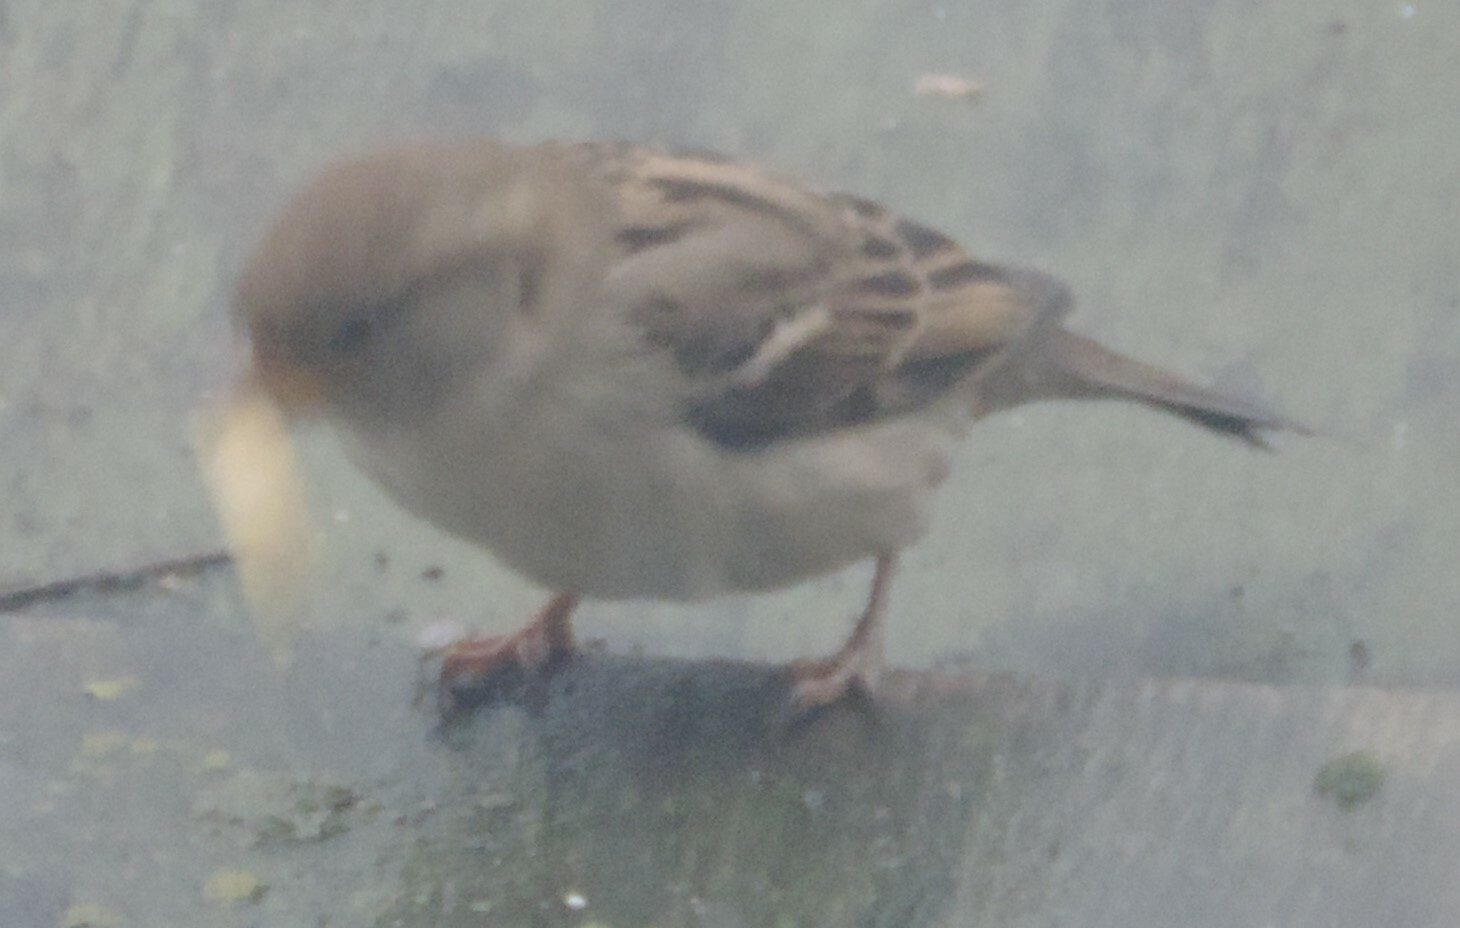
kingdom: Animalia
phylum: Chordata
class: Aves
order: Passeriformes
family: Passeridae
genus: Passer
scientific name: Passer domesticus
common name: House sparrow
